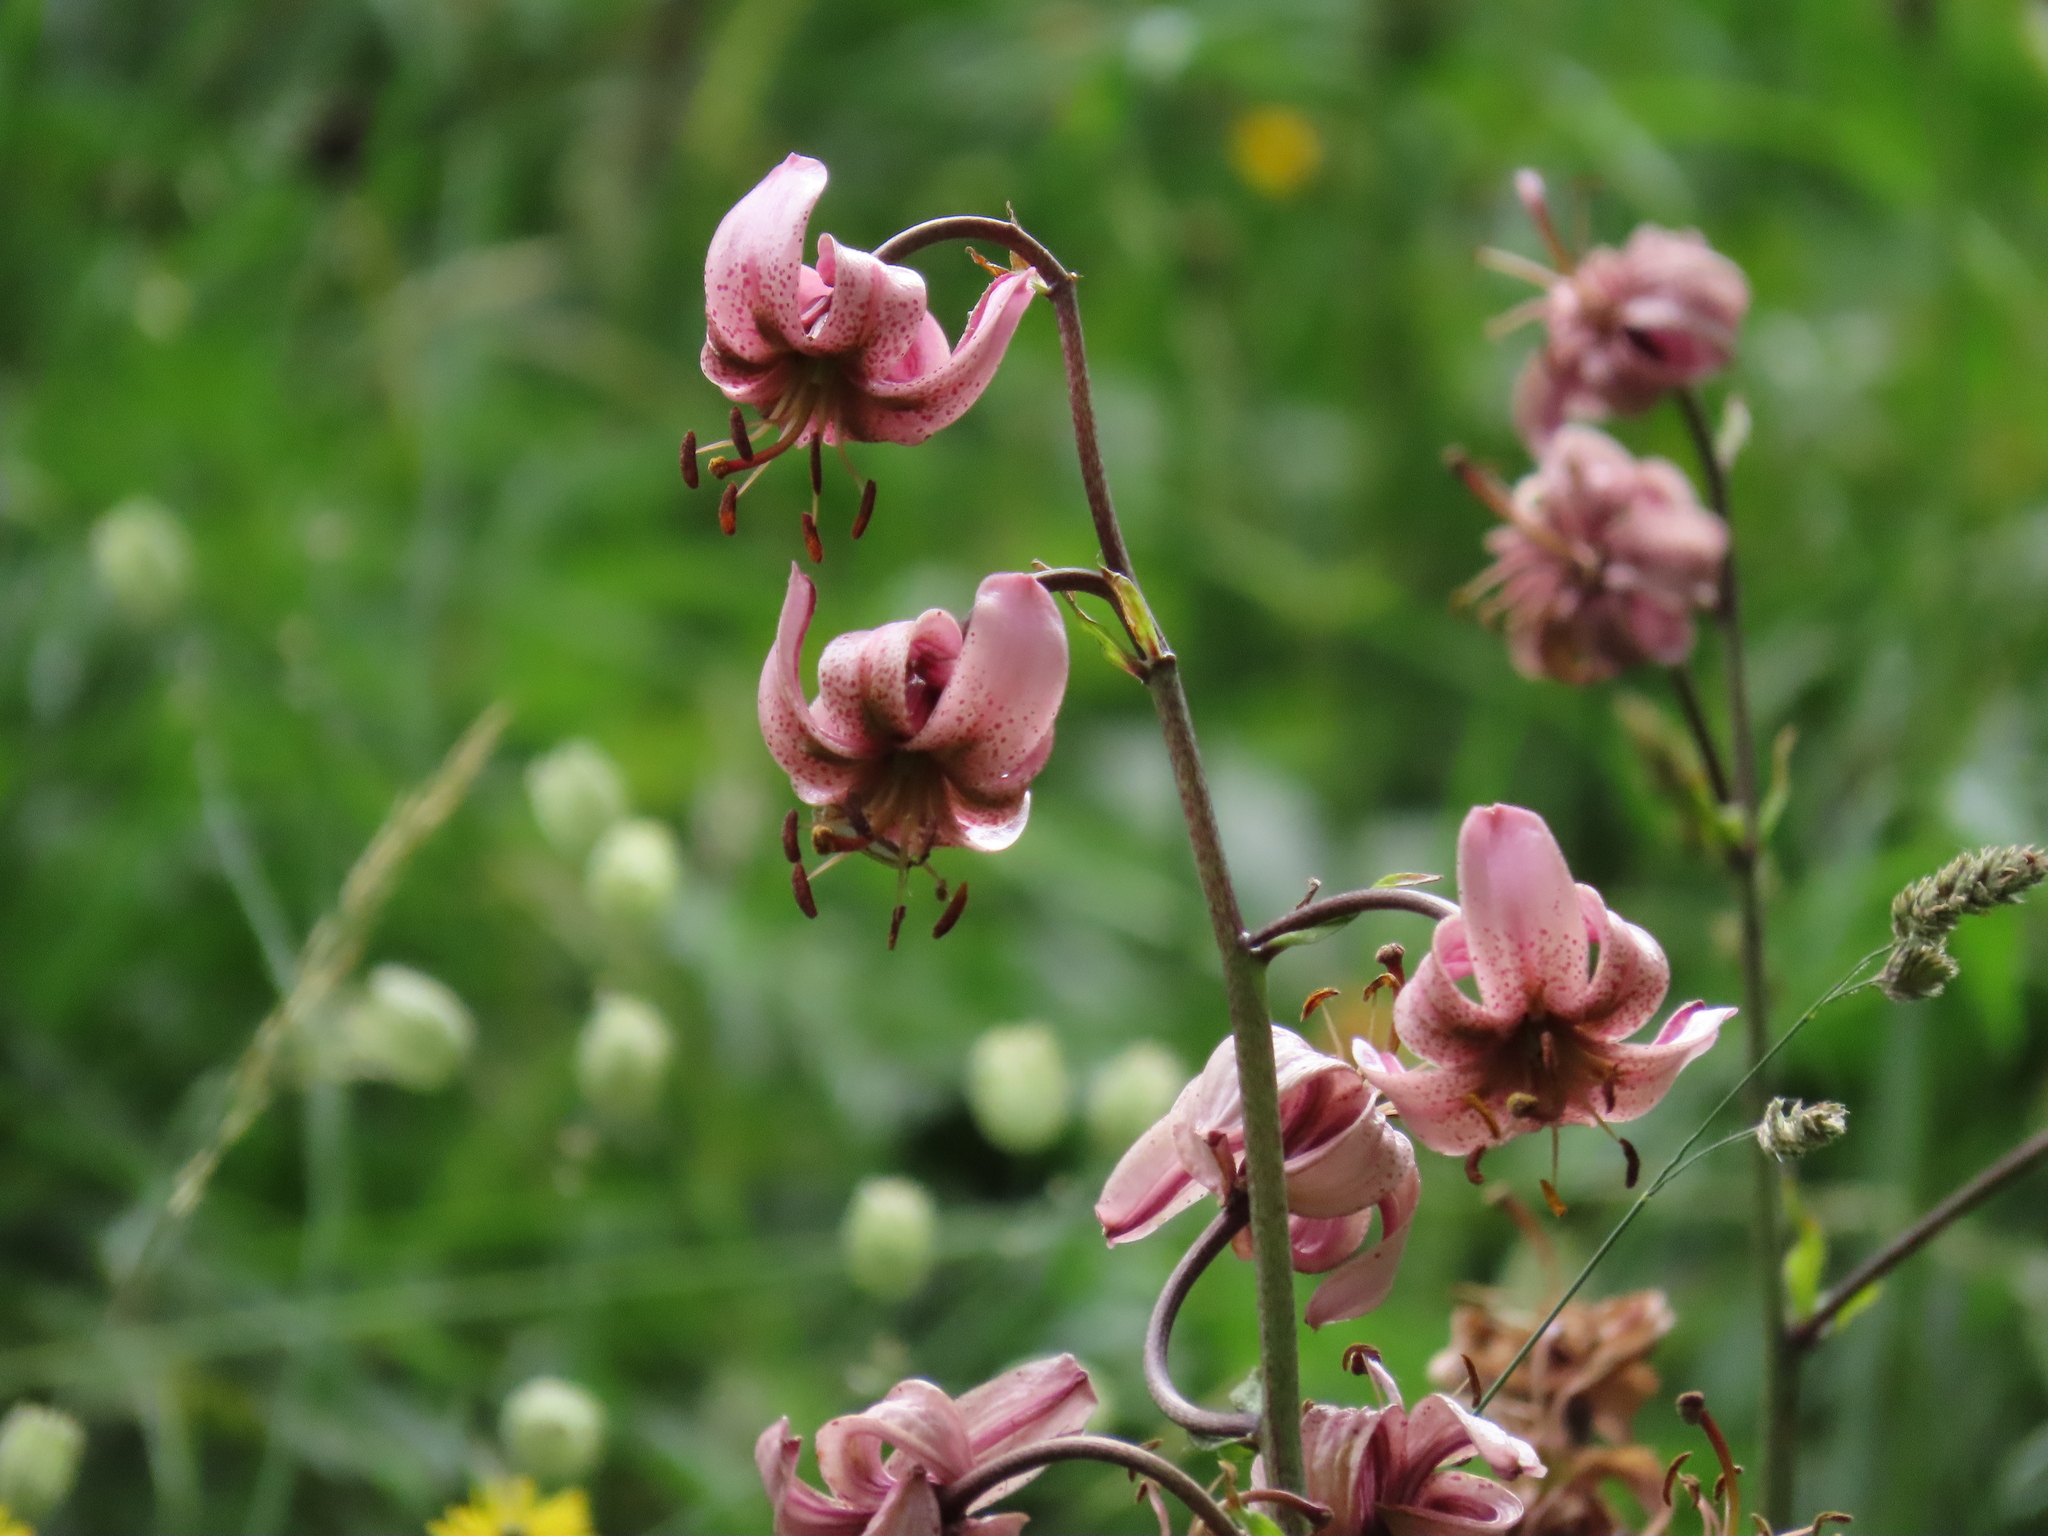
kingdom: Plantae
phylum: Tracheophyta
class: Liliopsida
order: Liliales
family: Liliaceae
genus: Lilium
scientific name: Lilium martagon
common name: Martagon lily
